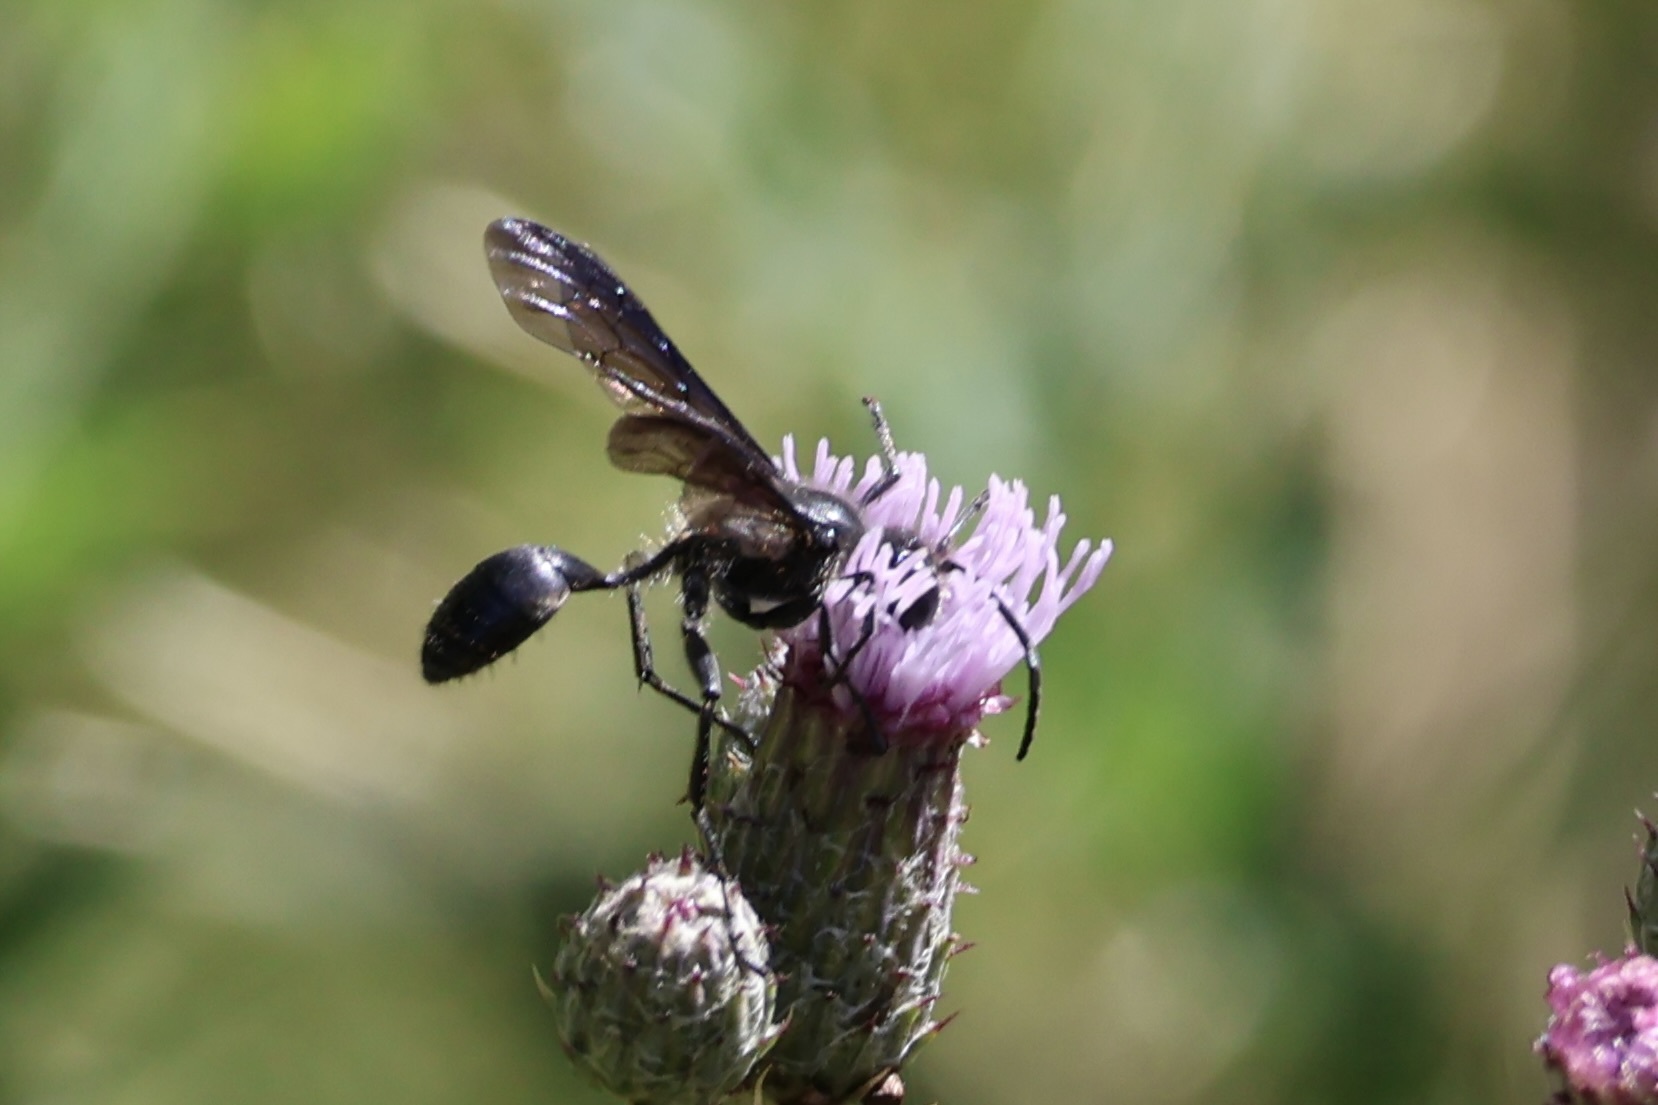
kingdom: Animalia
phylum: Arthropoda
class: Insecta
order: Hymenoptera
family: Sphecidae
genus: Isodontia
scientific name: Isodontia mexicana
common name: Mud dauber
